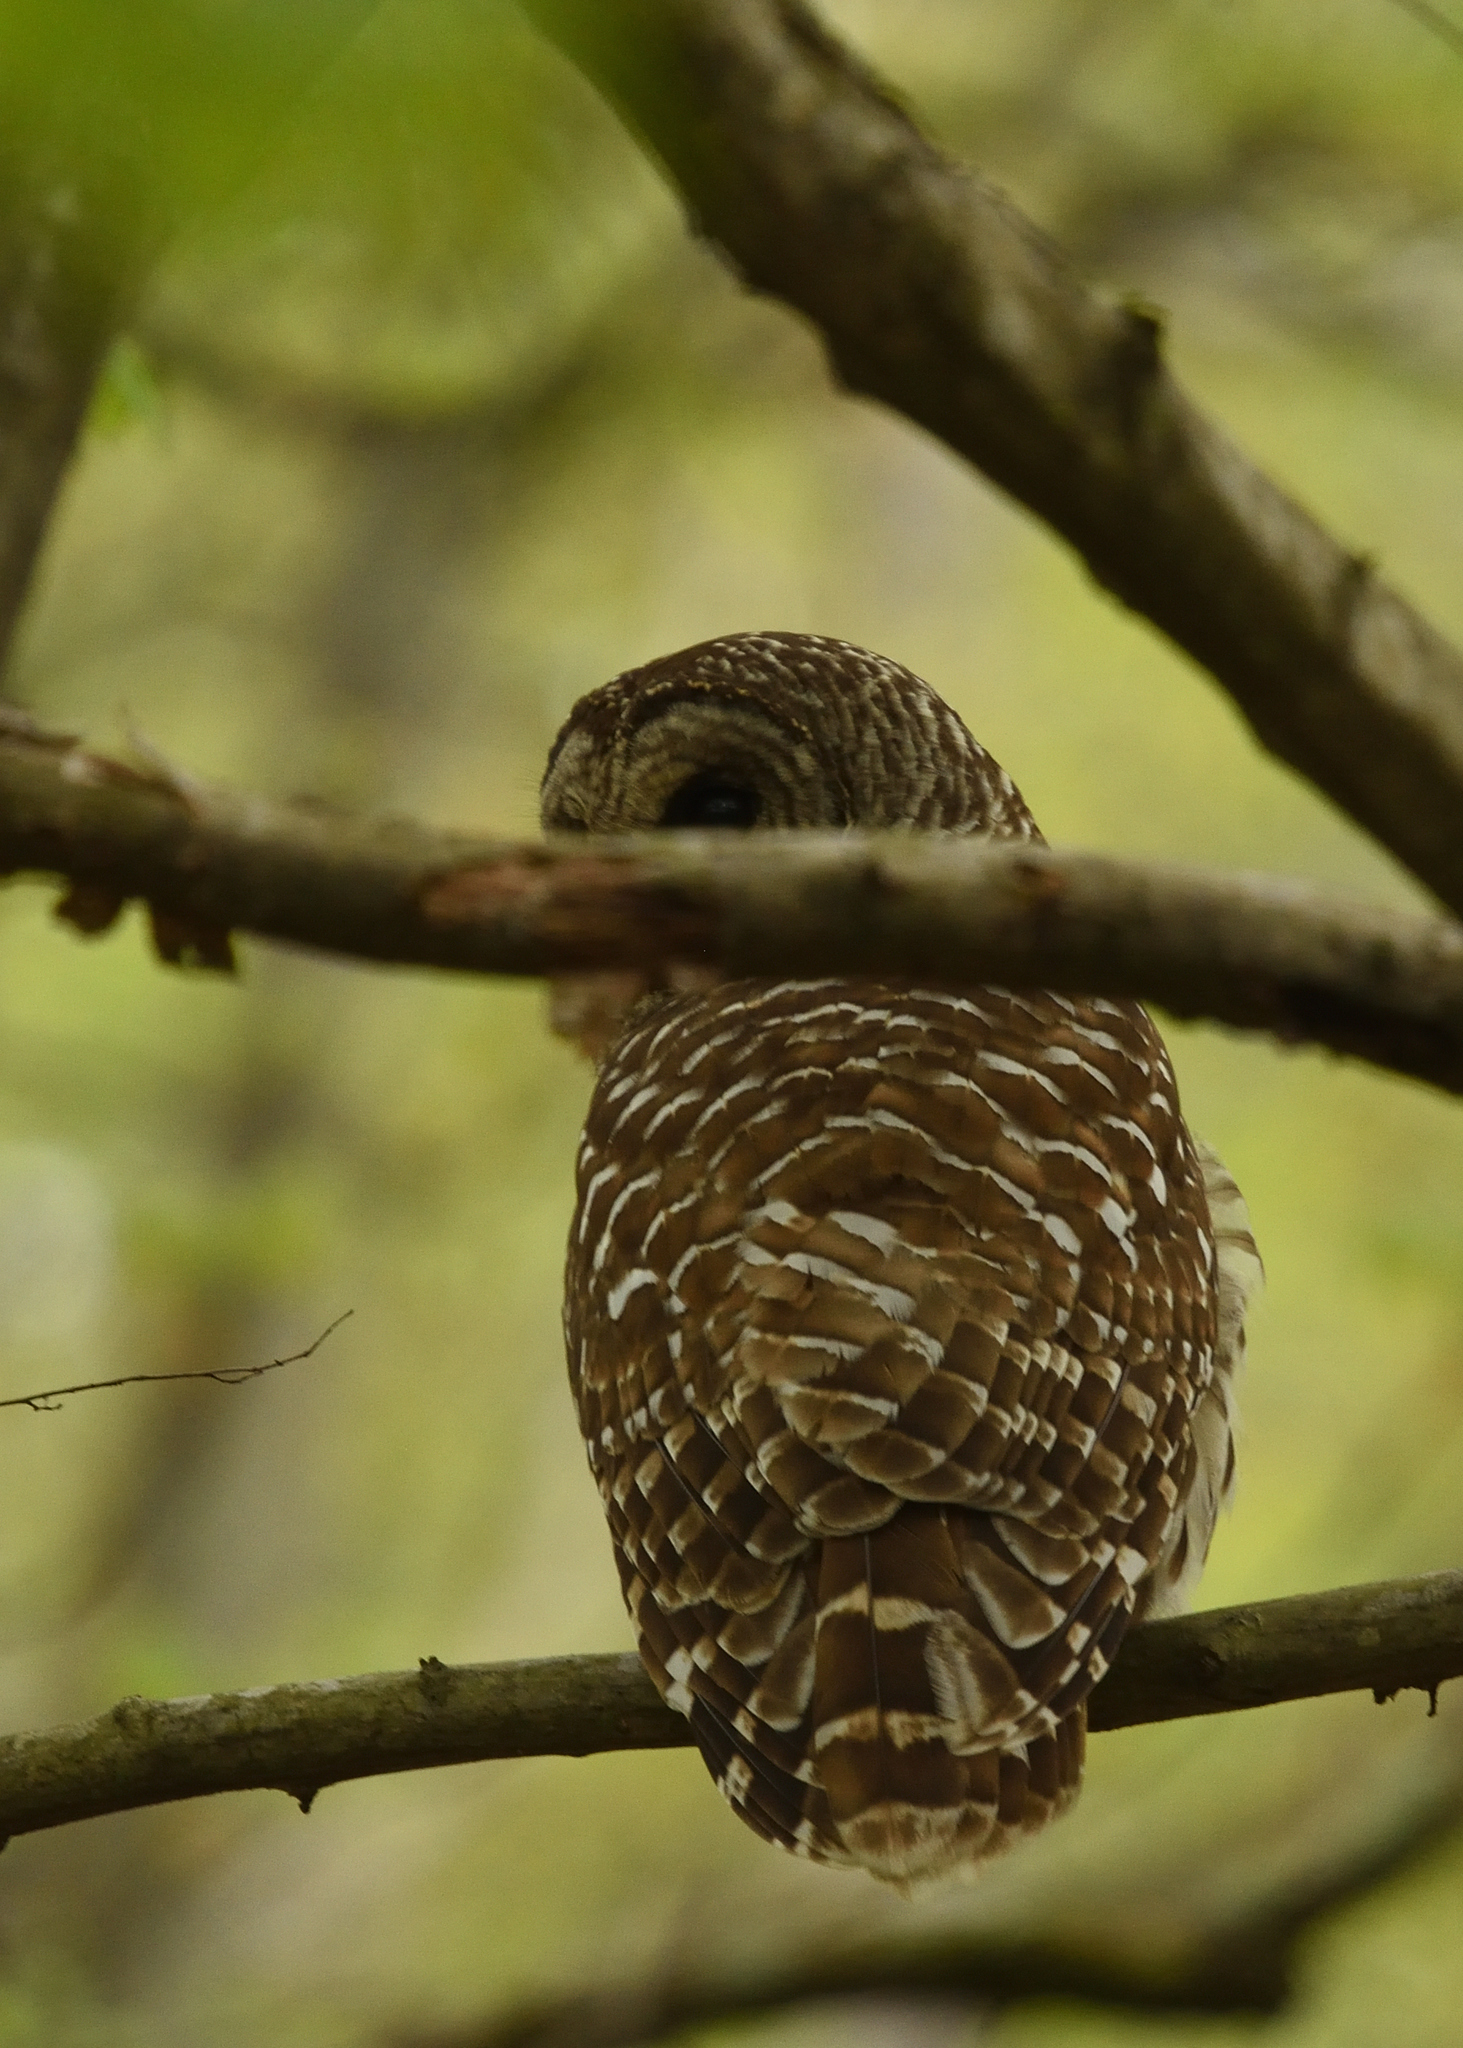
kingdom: Animalia
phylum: Chordata
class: Aves
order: Strigiformes
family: Strigidae
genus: Strix
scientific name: Strix varia
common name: Barred owl
